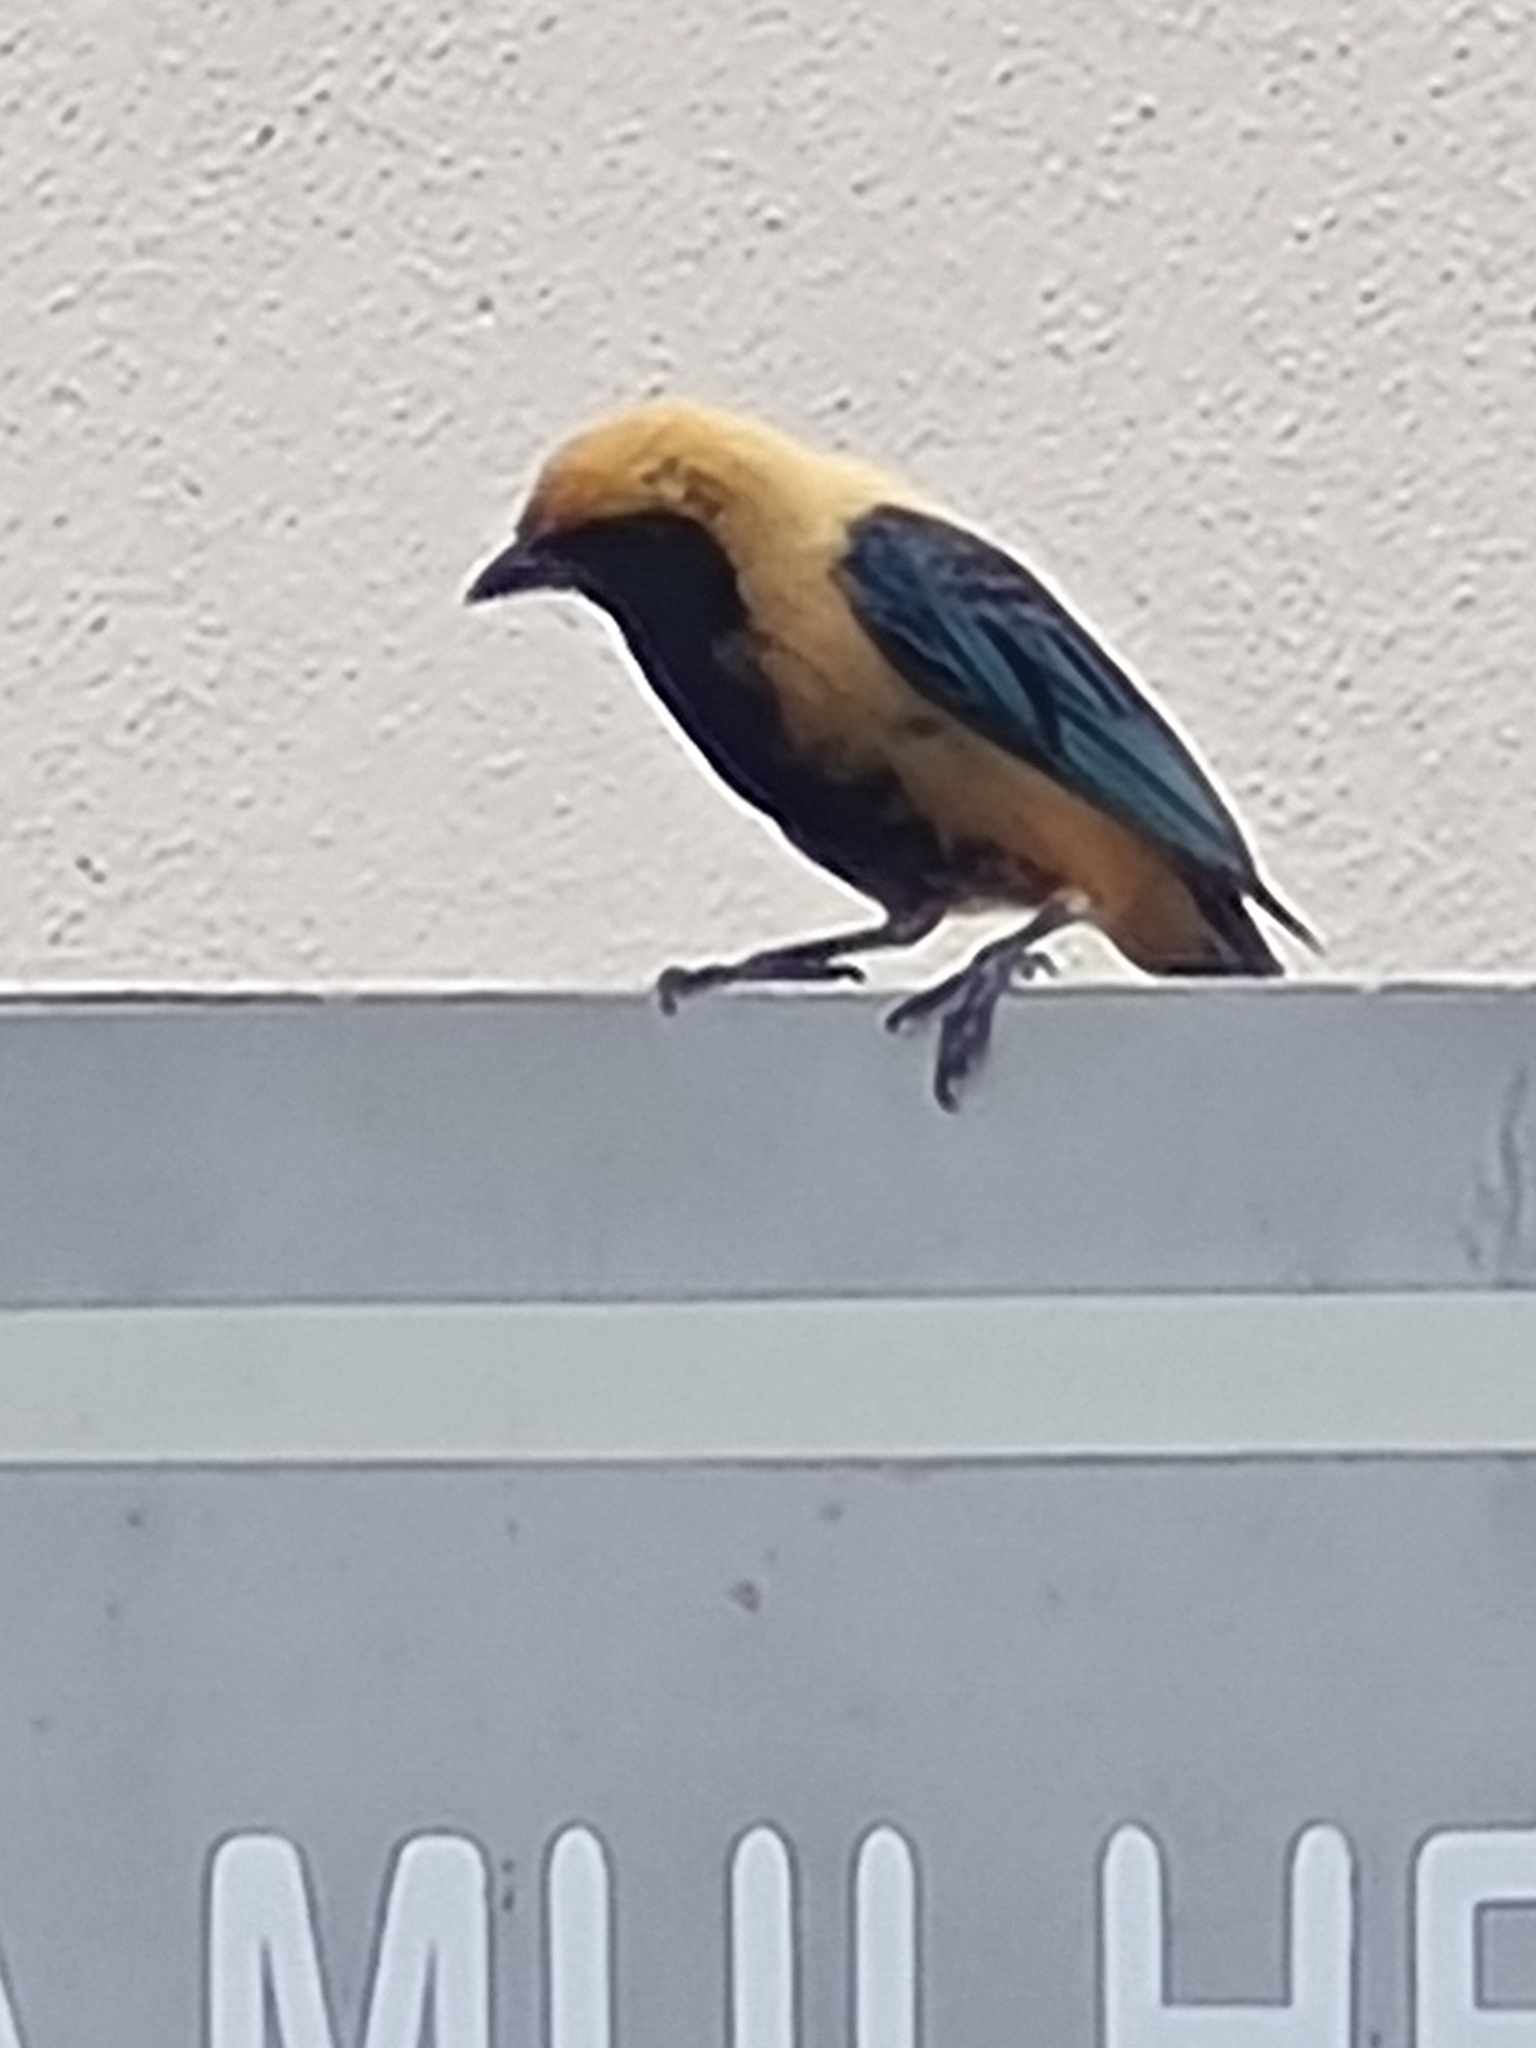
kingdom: Animalia
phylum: Chordata
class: Aves
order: Passeriformes
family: Thraupidae
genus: Stilpnia
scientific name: Stilpnia cayana
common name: Burnished-buff tanager
